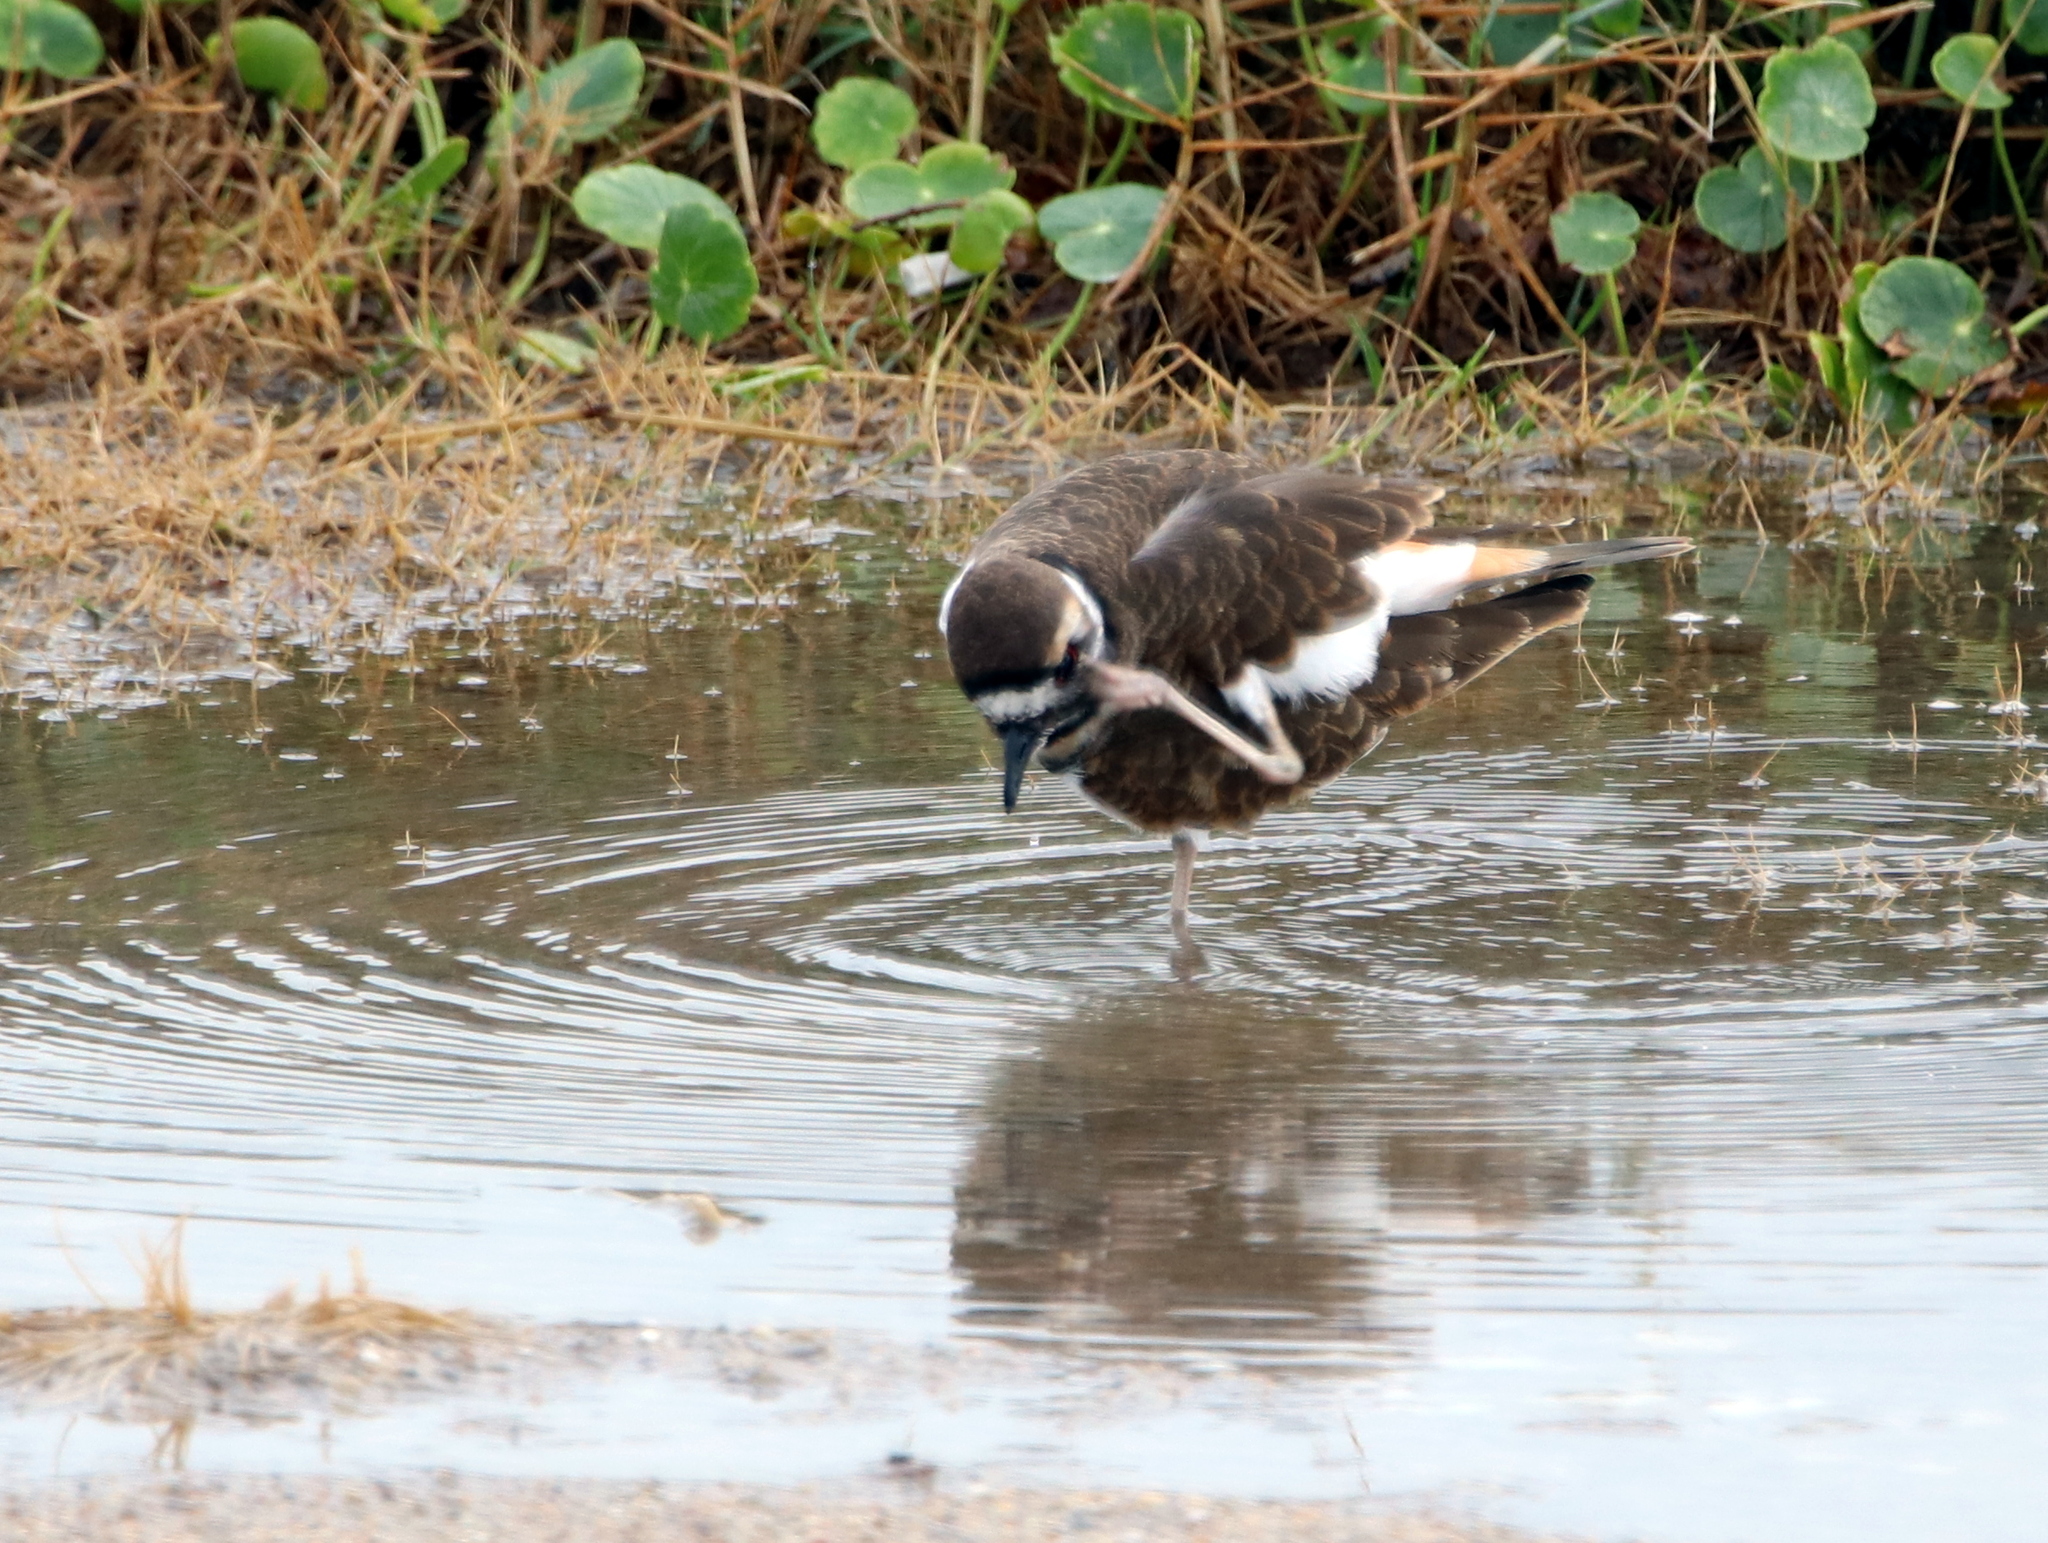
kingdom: Animalia
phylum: Chordata
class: Aves
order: Charadriiformes
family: Charadriidae
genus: Charadrius
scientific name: Charadrius vociferus
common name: Killdeer
